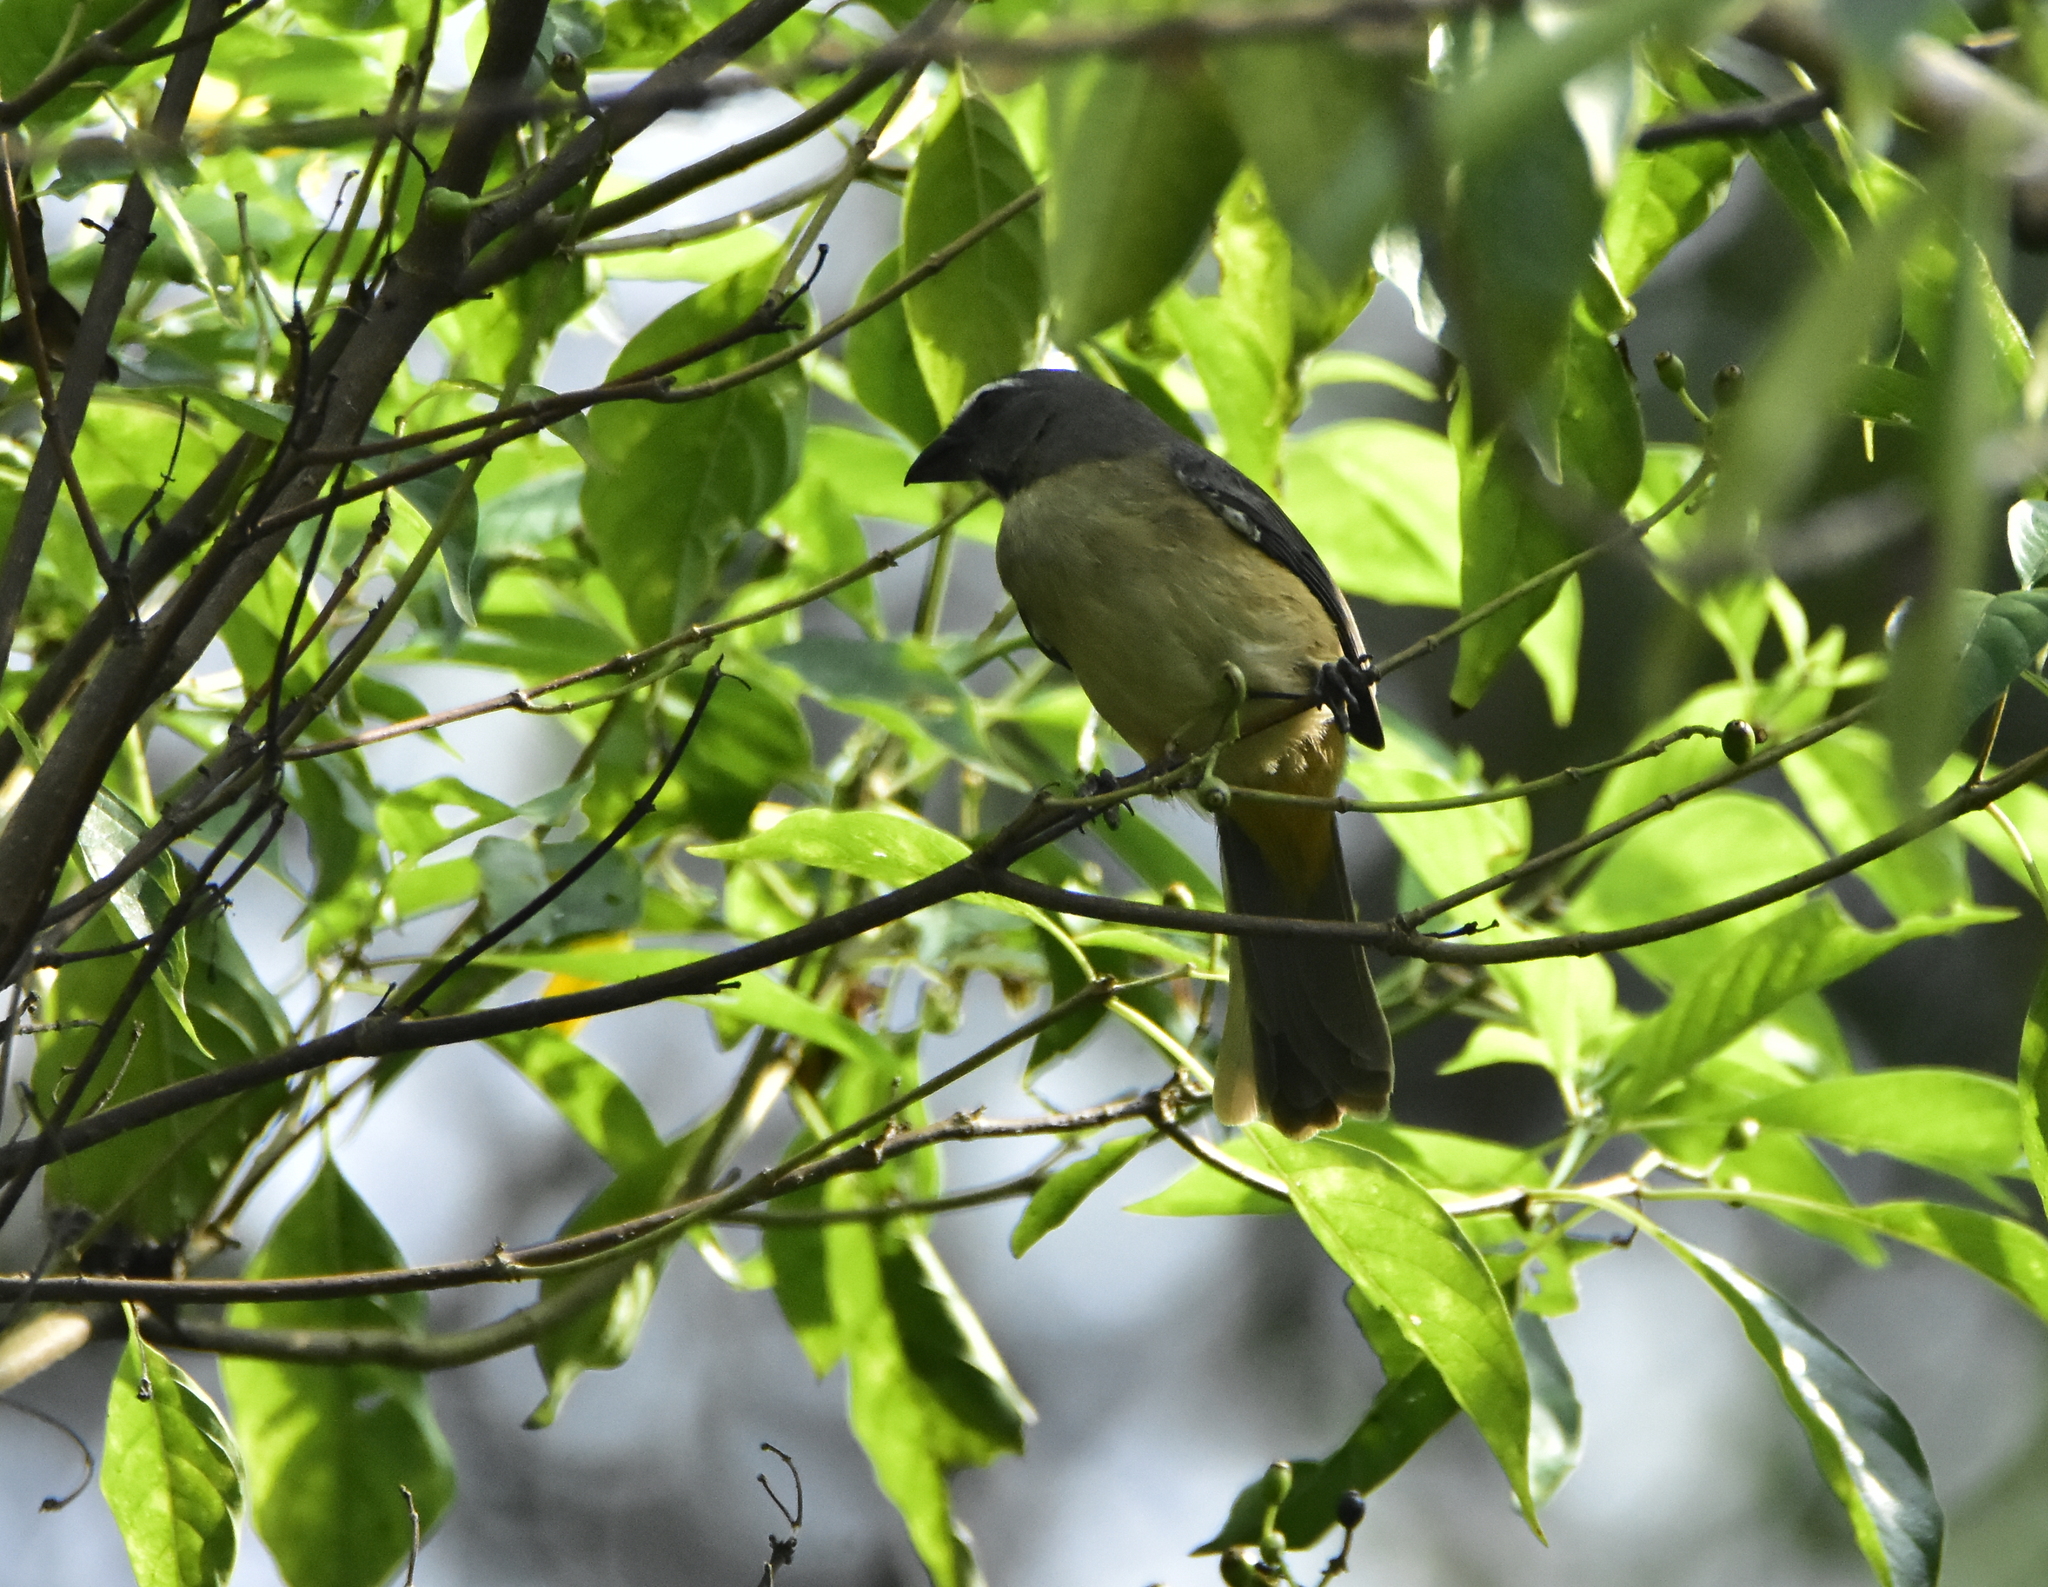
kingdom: Animalia
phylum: Chordata
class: Aves
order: Passeriformes
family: Thraupidae
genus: Saltator
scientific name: Saltator grandis
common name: Cinnamon-bellied saltator
